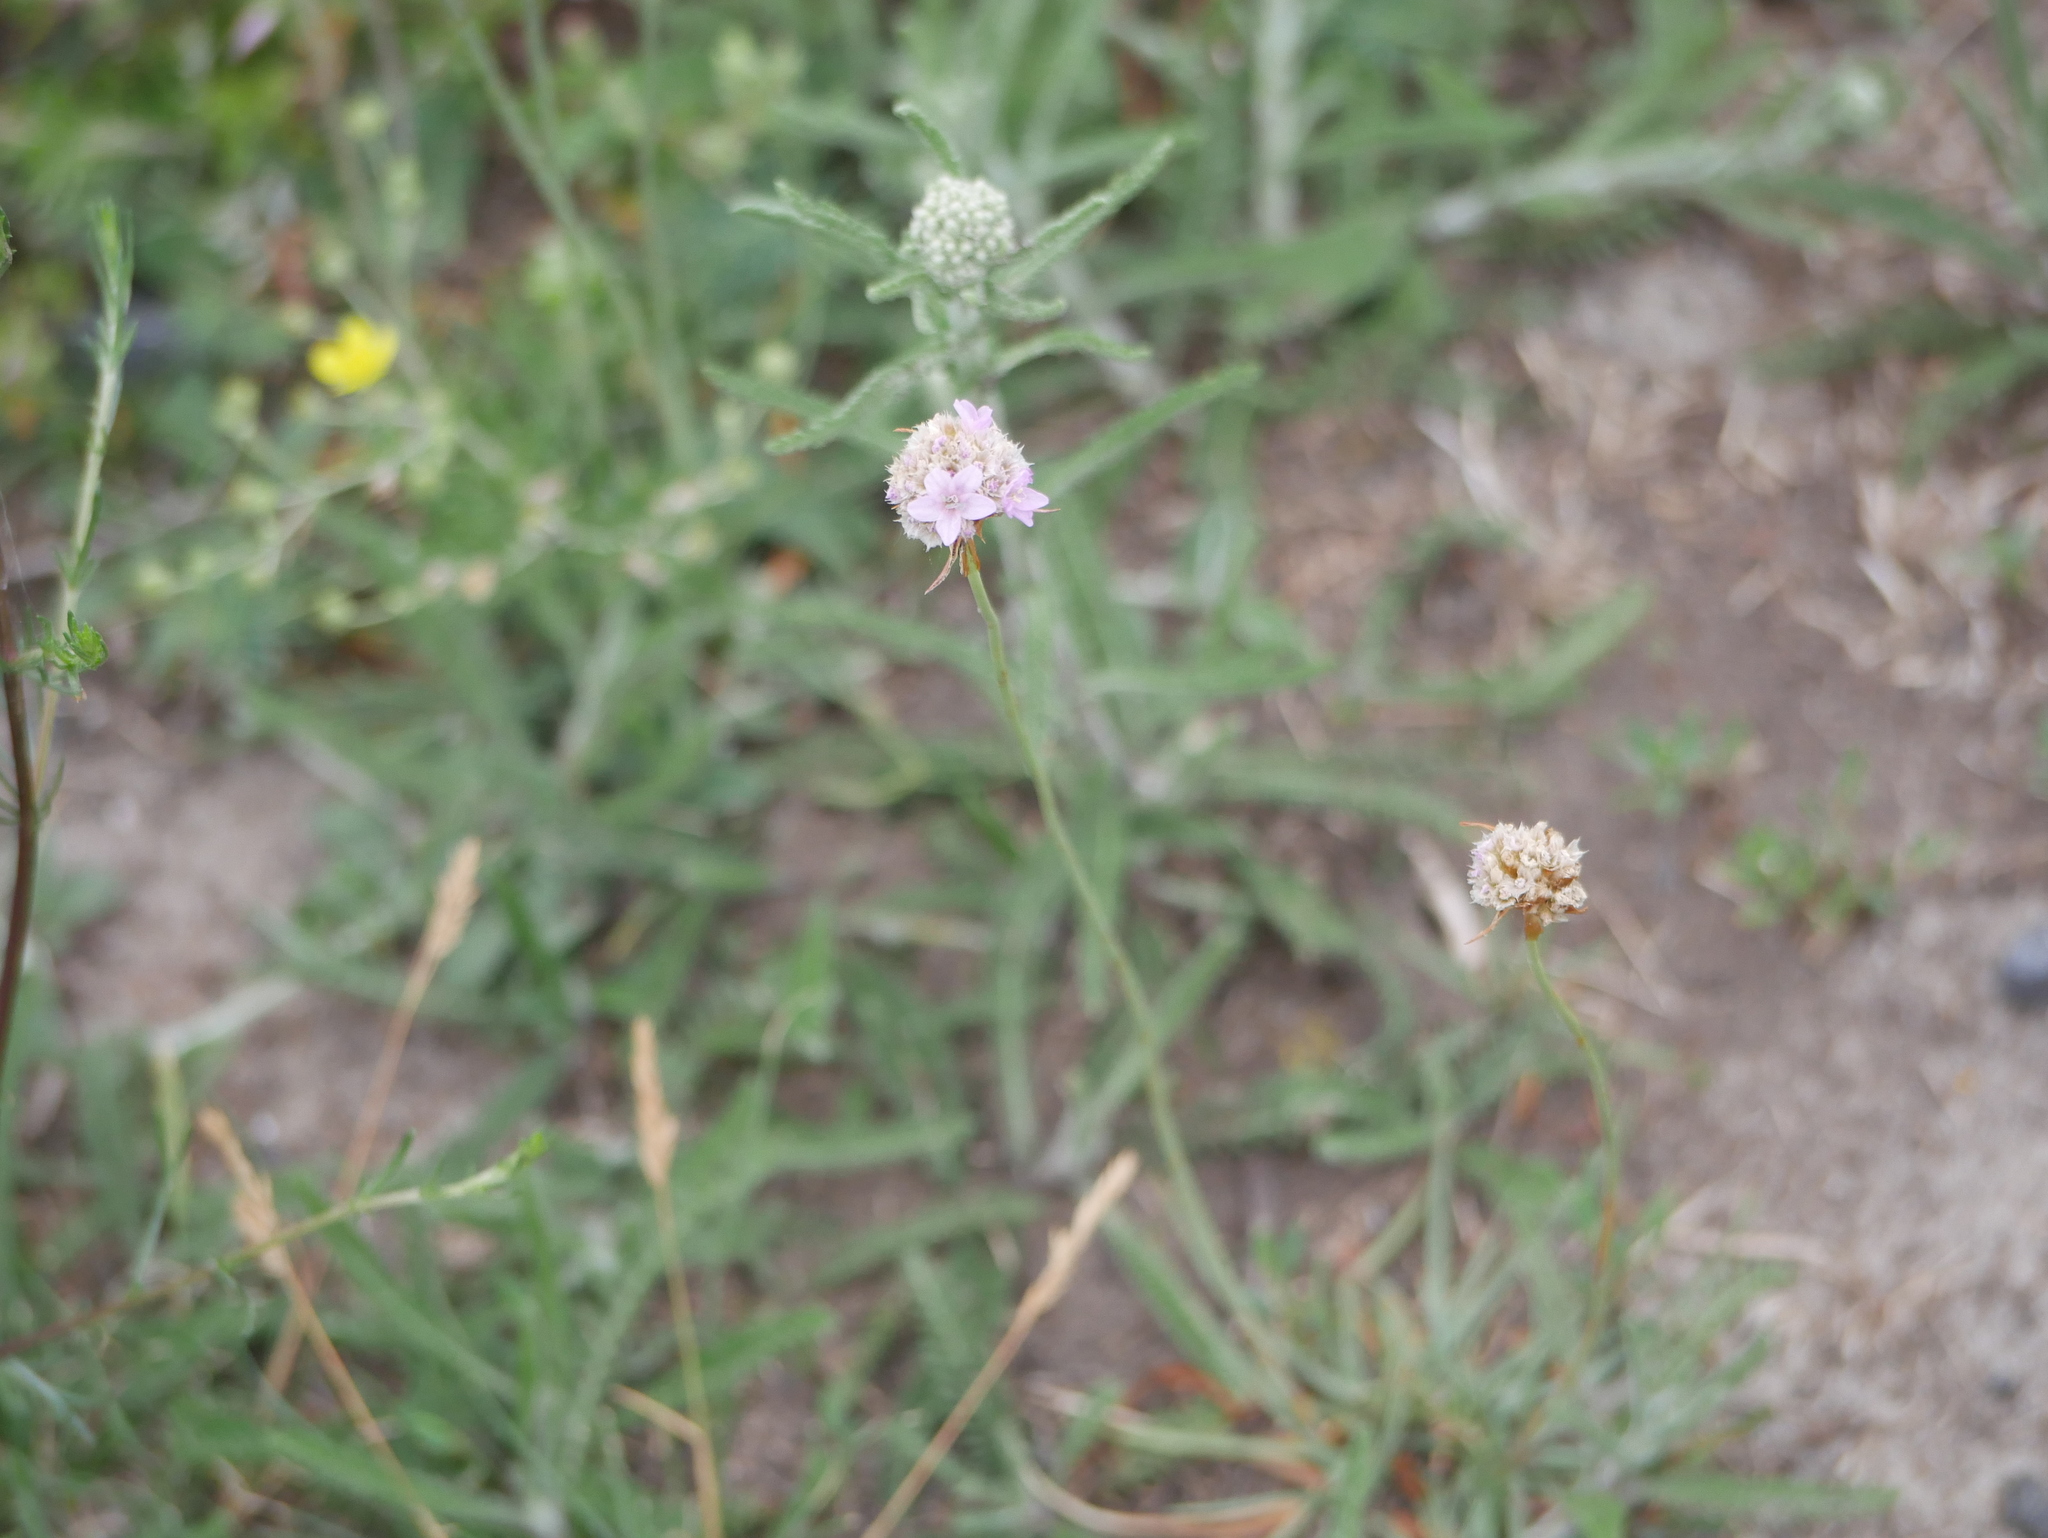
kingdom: Plantae
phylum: Tracheophyta
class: Magnoliopsida
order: Caryophyllales
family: Plumbaginaceae
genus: Armeria
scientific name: Armeria maritima
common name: Thrift
